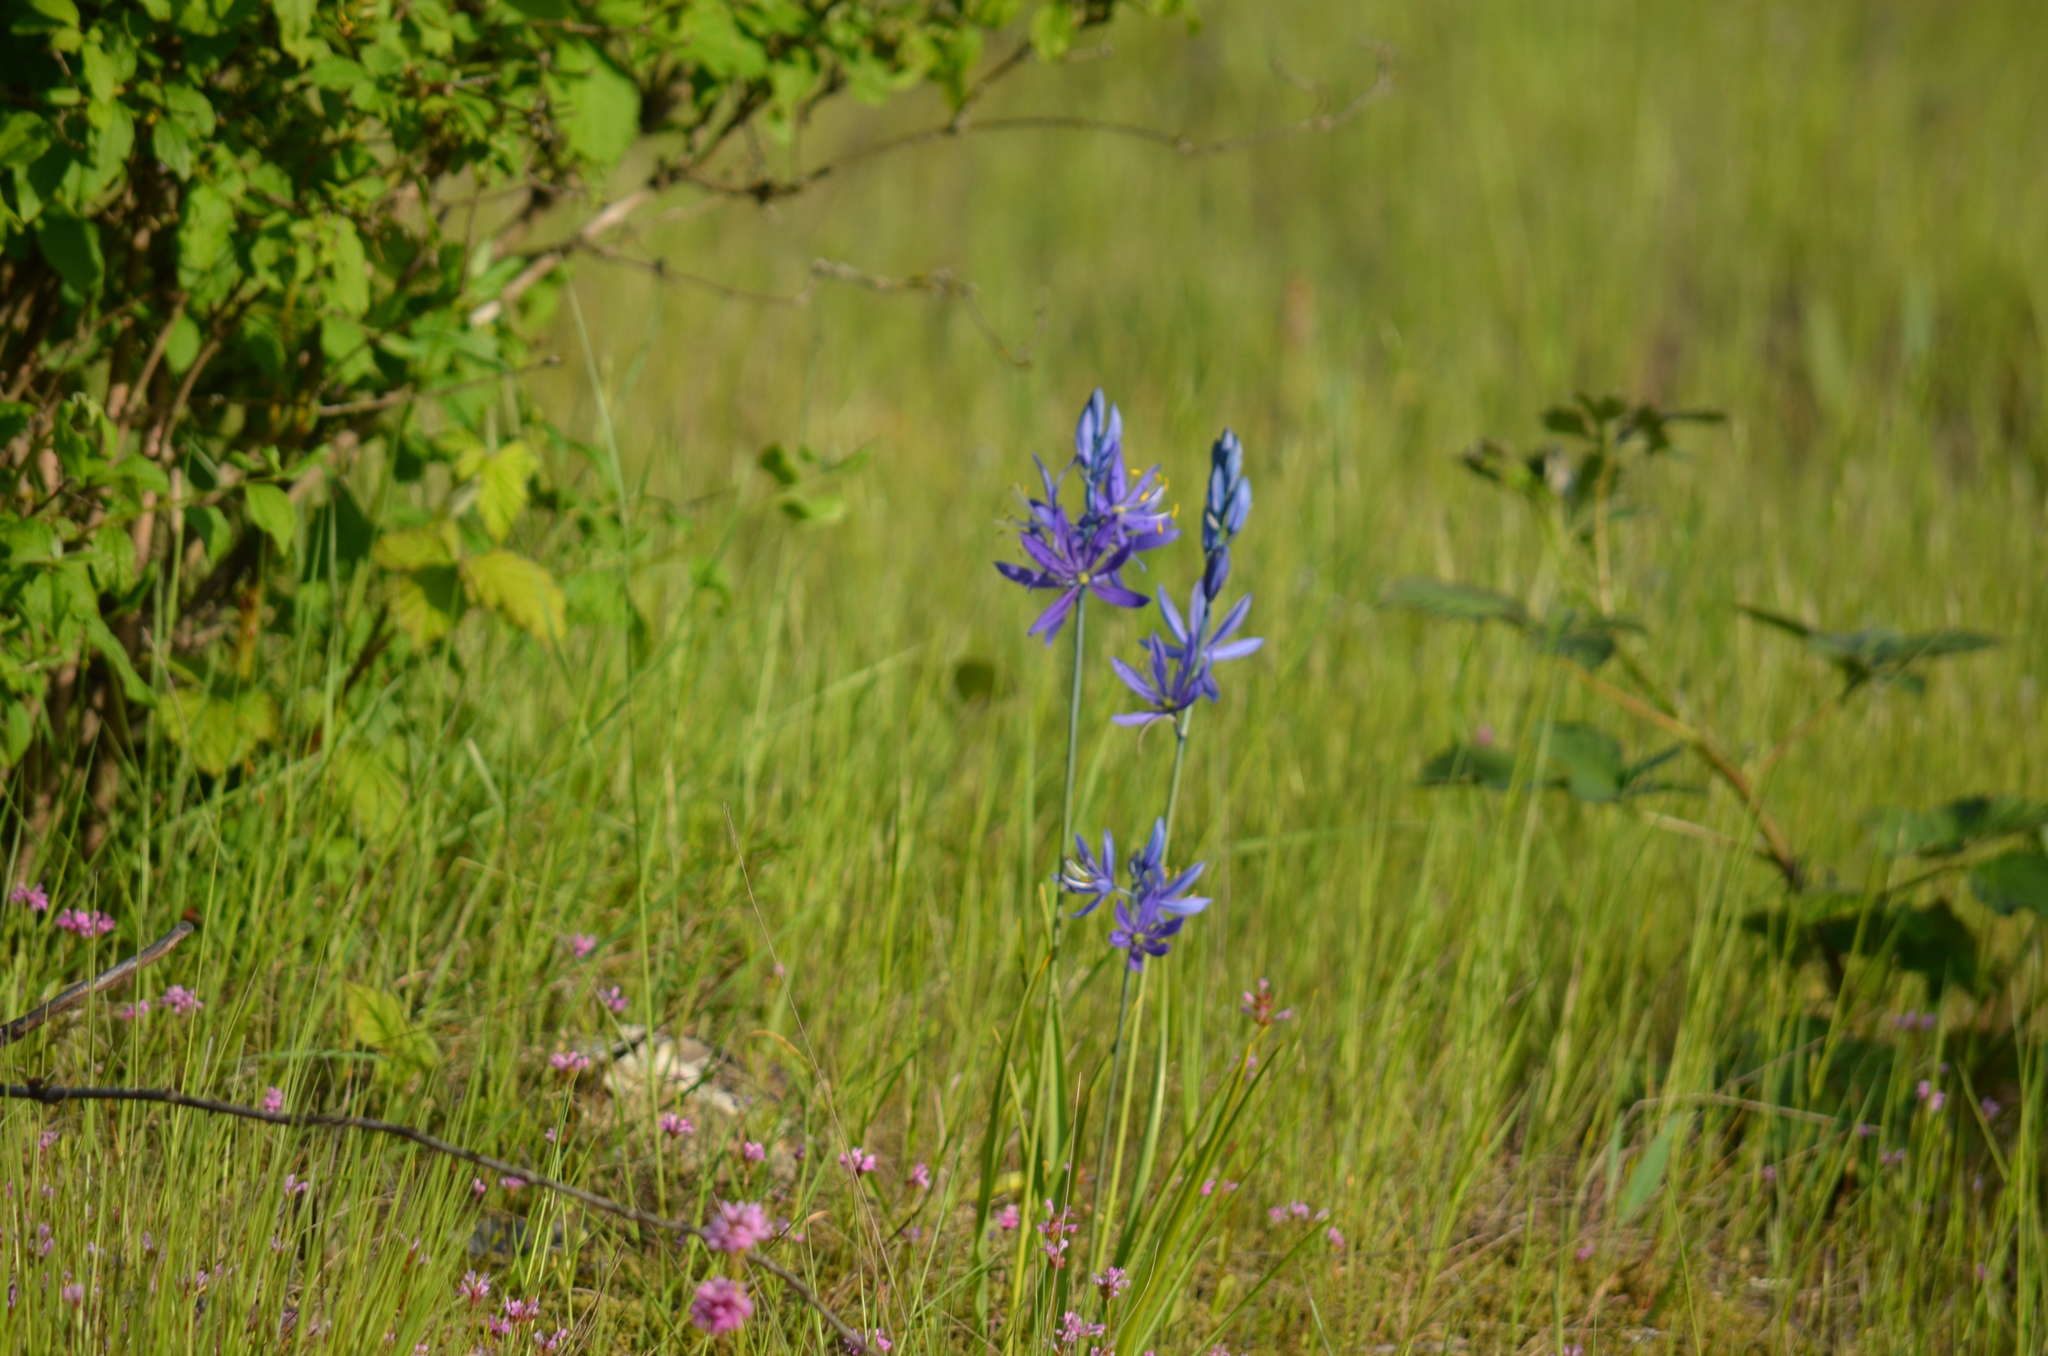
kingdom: Plantae
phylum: Tracheophyta
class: Liliopsida
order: Asparagales
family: Asparagaceae
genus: Camassia
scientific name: Camassia leichtlinii
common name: Leichtlin's camas
